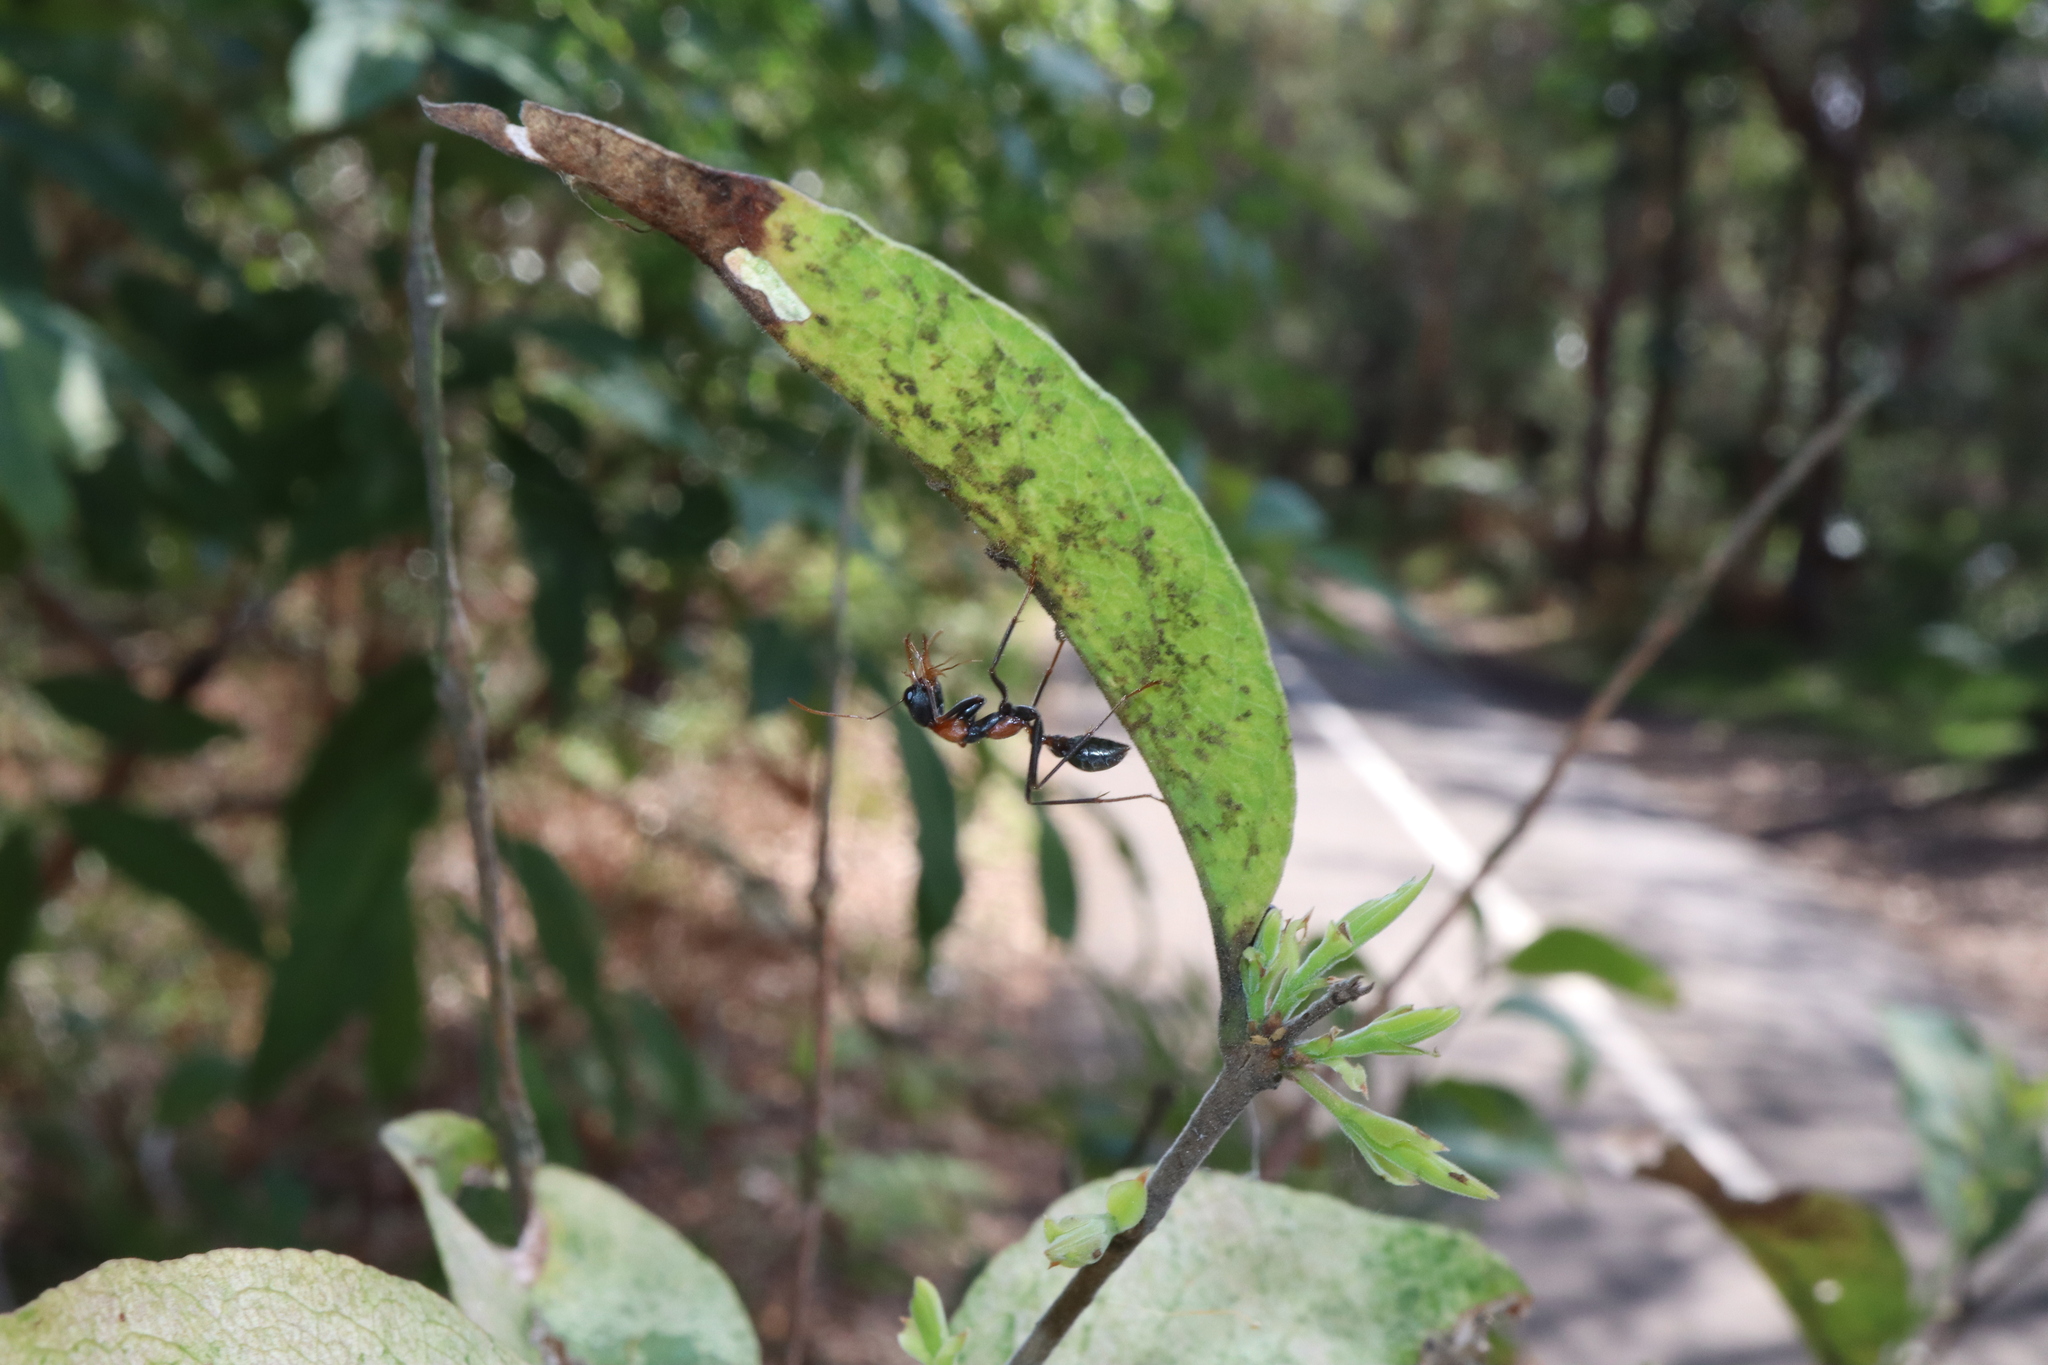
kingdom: Animalia
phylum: Arthropoda
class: Insecta
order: Hymenoptera
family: Formicidae
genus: Myrmecia
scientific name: Myrmecia nigrocincta
